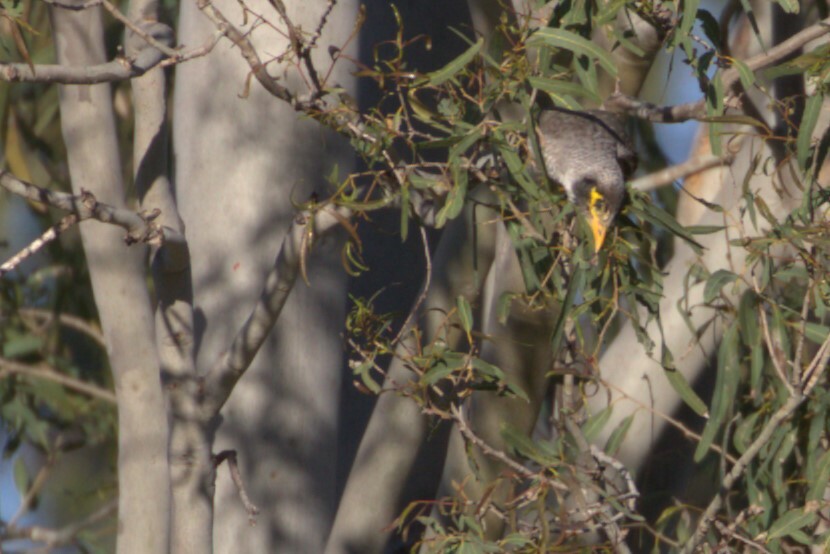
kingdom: Animalia
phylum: Chordata
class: Aves
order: Passeriformes
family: Meliphagidae
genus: Manorina
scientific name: Manorina melanocephala
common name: Noisy miner
